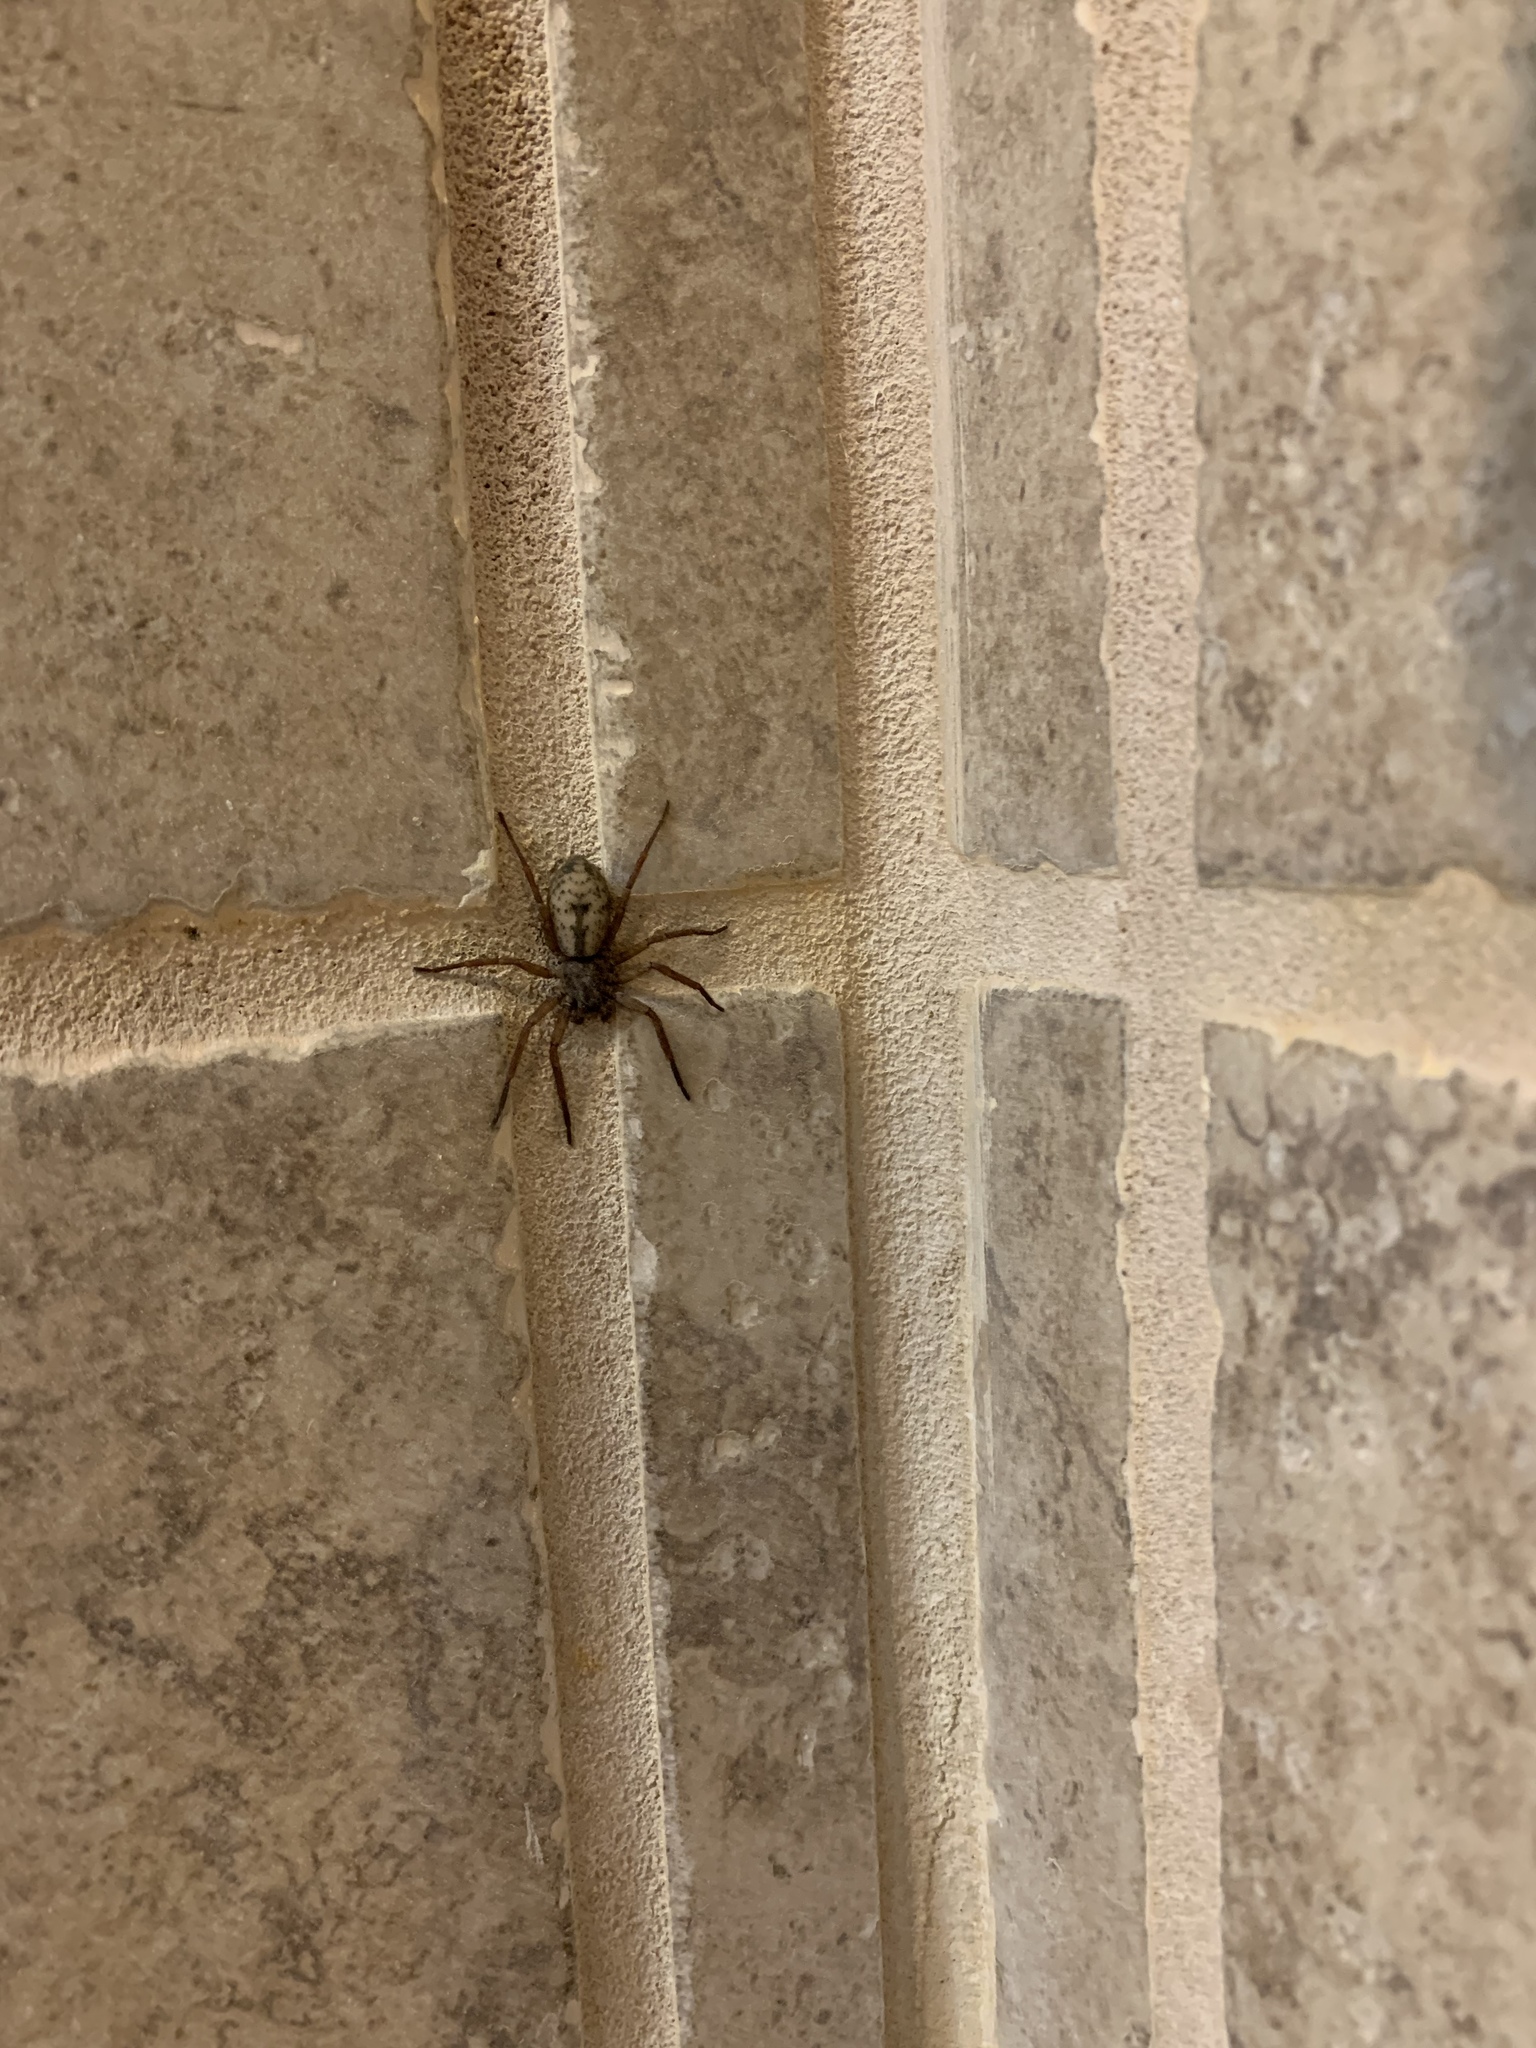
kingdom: Animalia
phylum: Arthropoda
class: Arachnida
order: Araneae
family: Zoropsidae
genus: Lauricius
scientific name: Lauricius hooki
